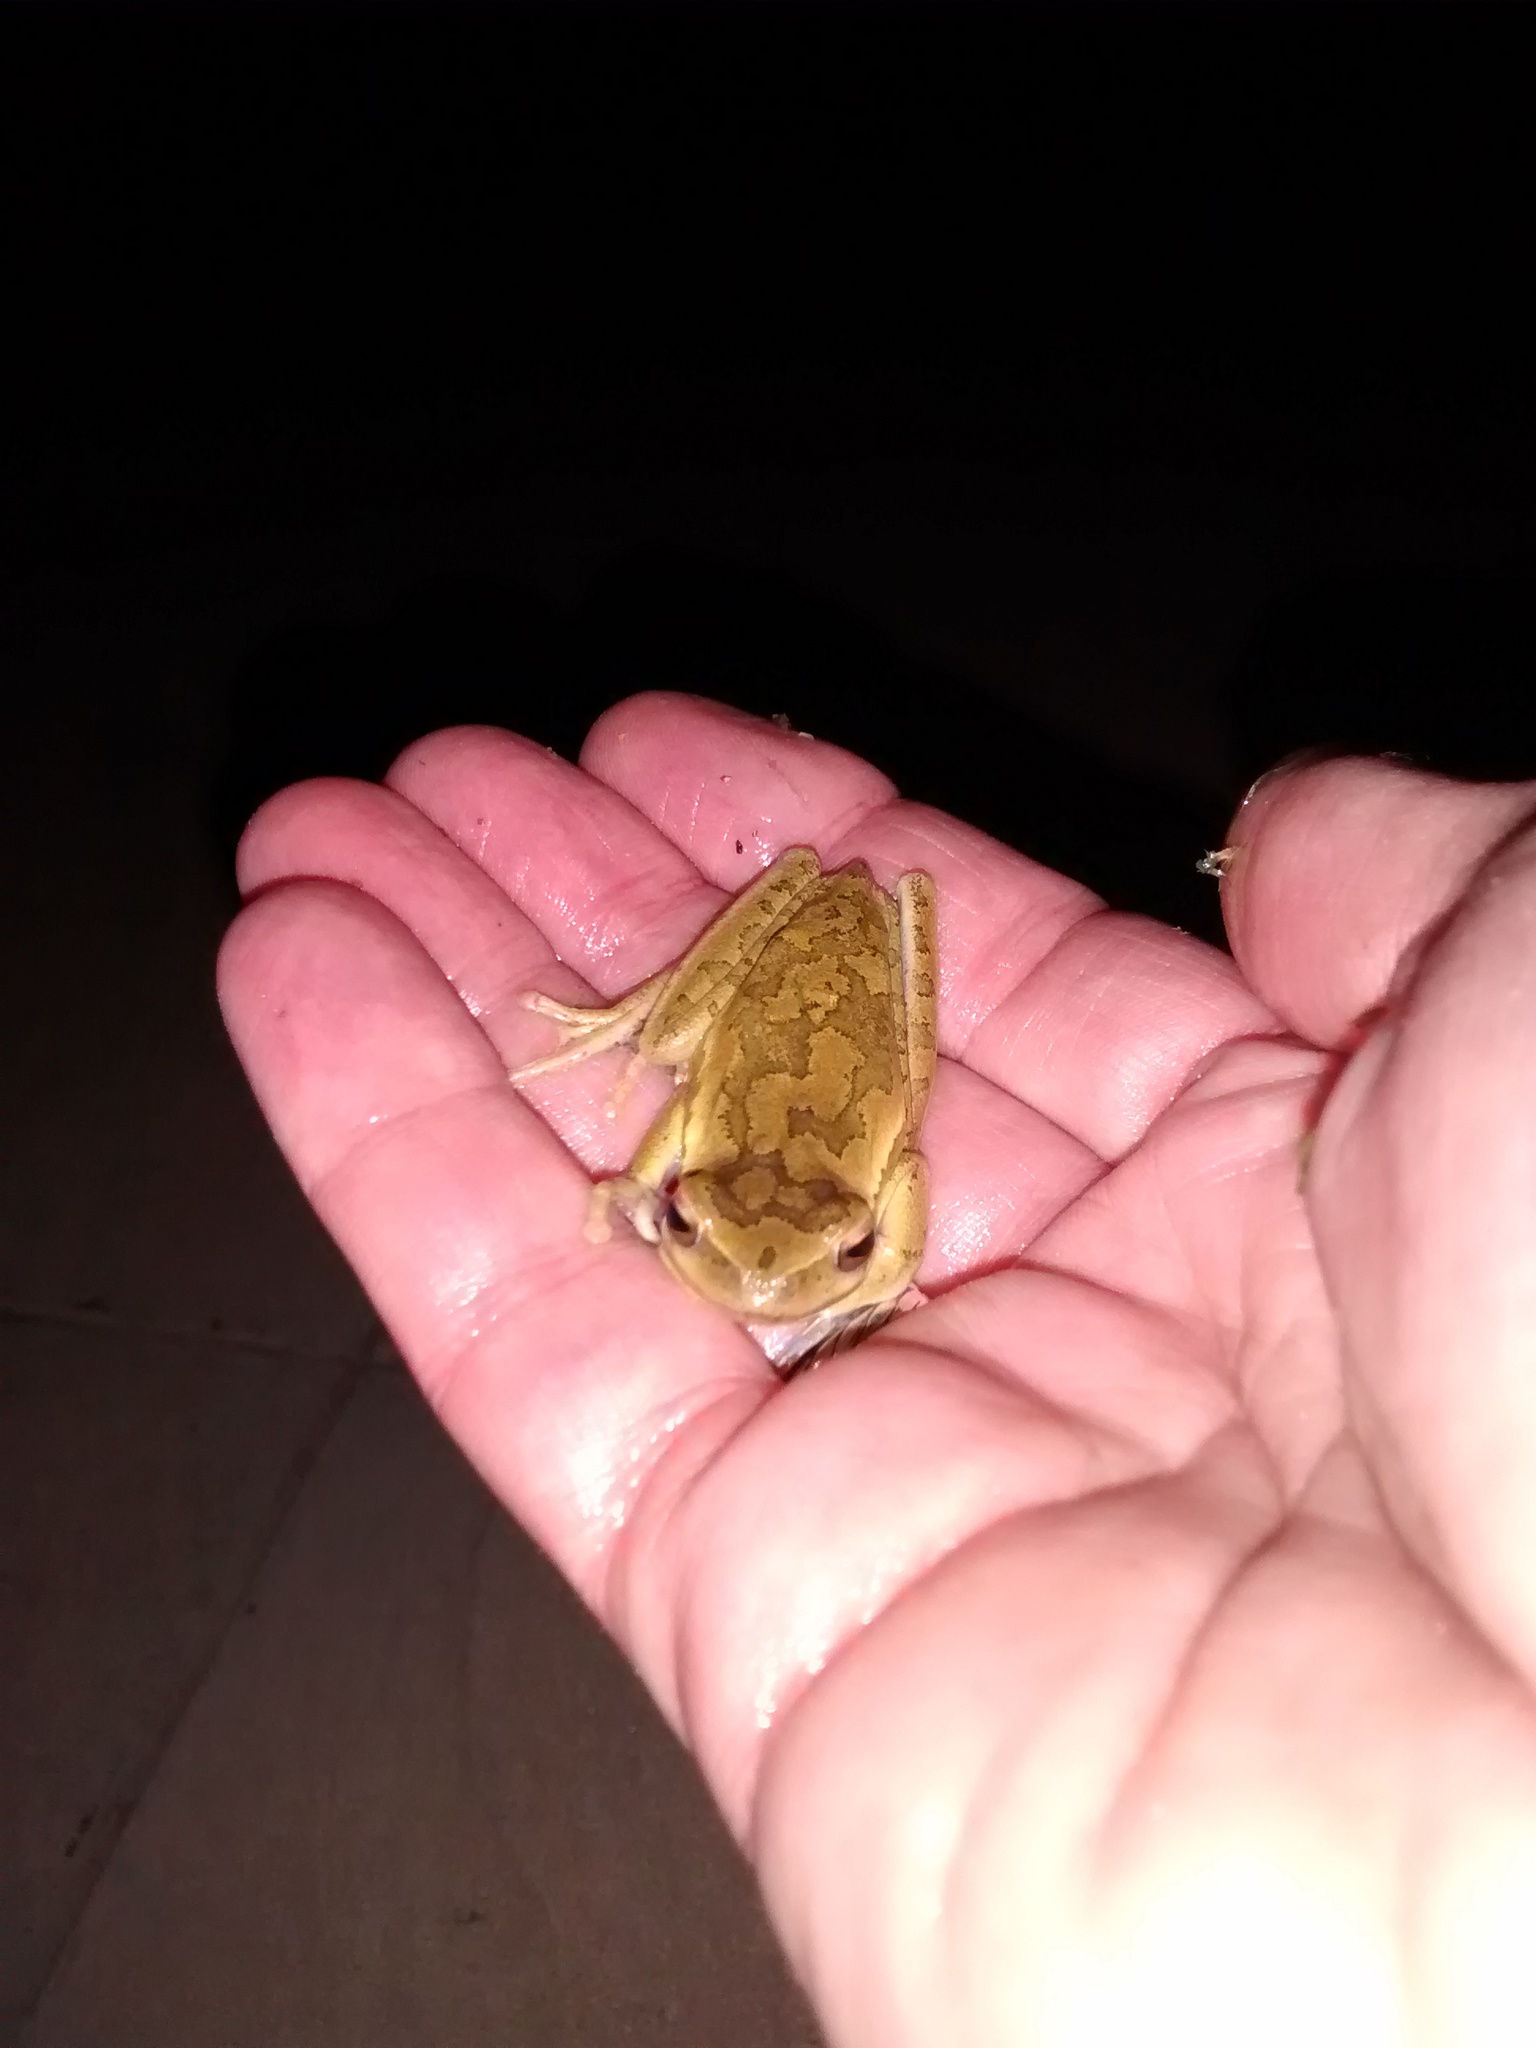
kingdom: Animalia
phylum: Chordata
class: Amphibia
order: Anura
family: Hylidae
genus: Boana
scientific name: Boana pulchella
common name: Montevideo treefrog
